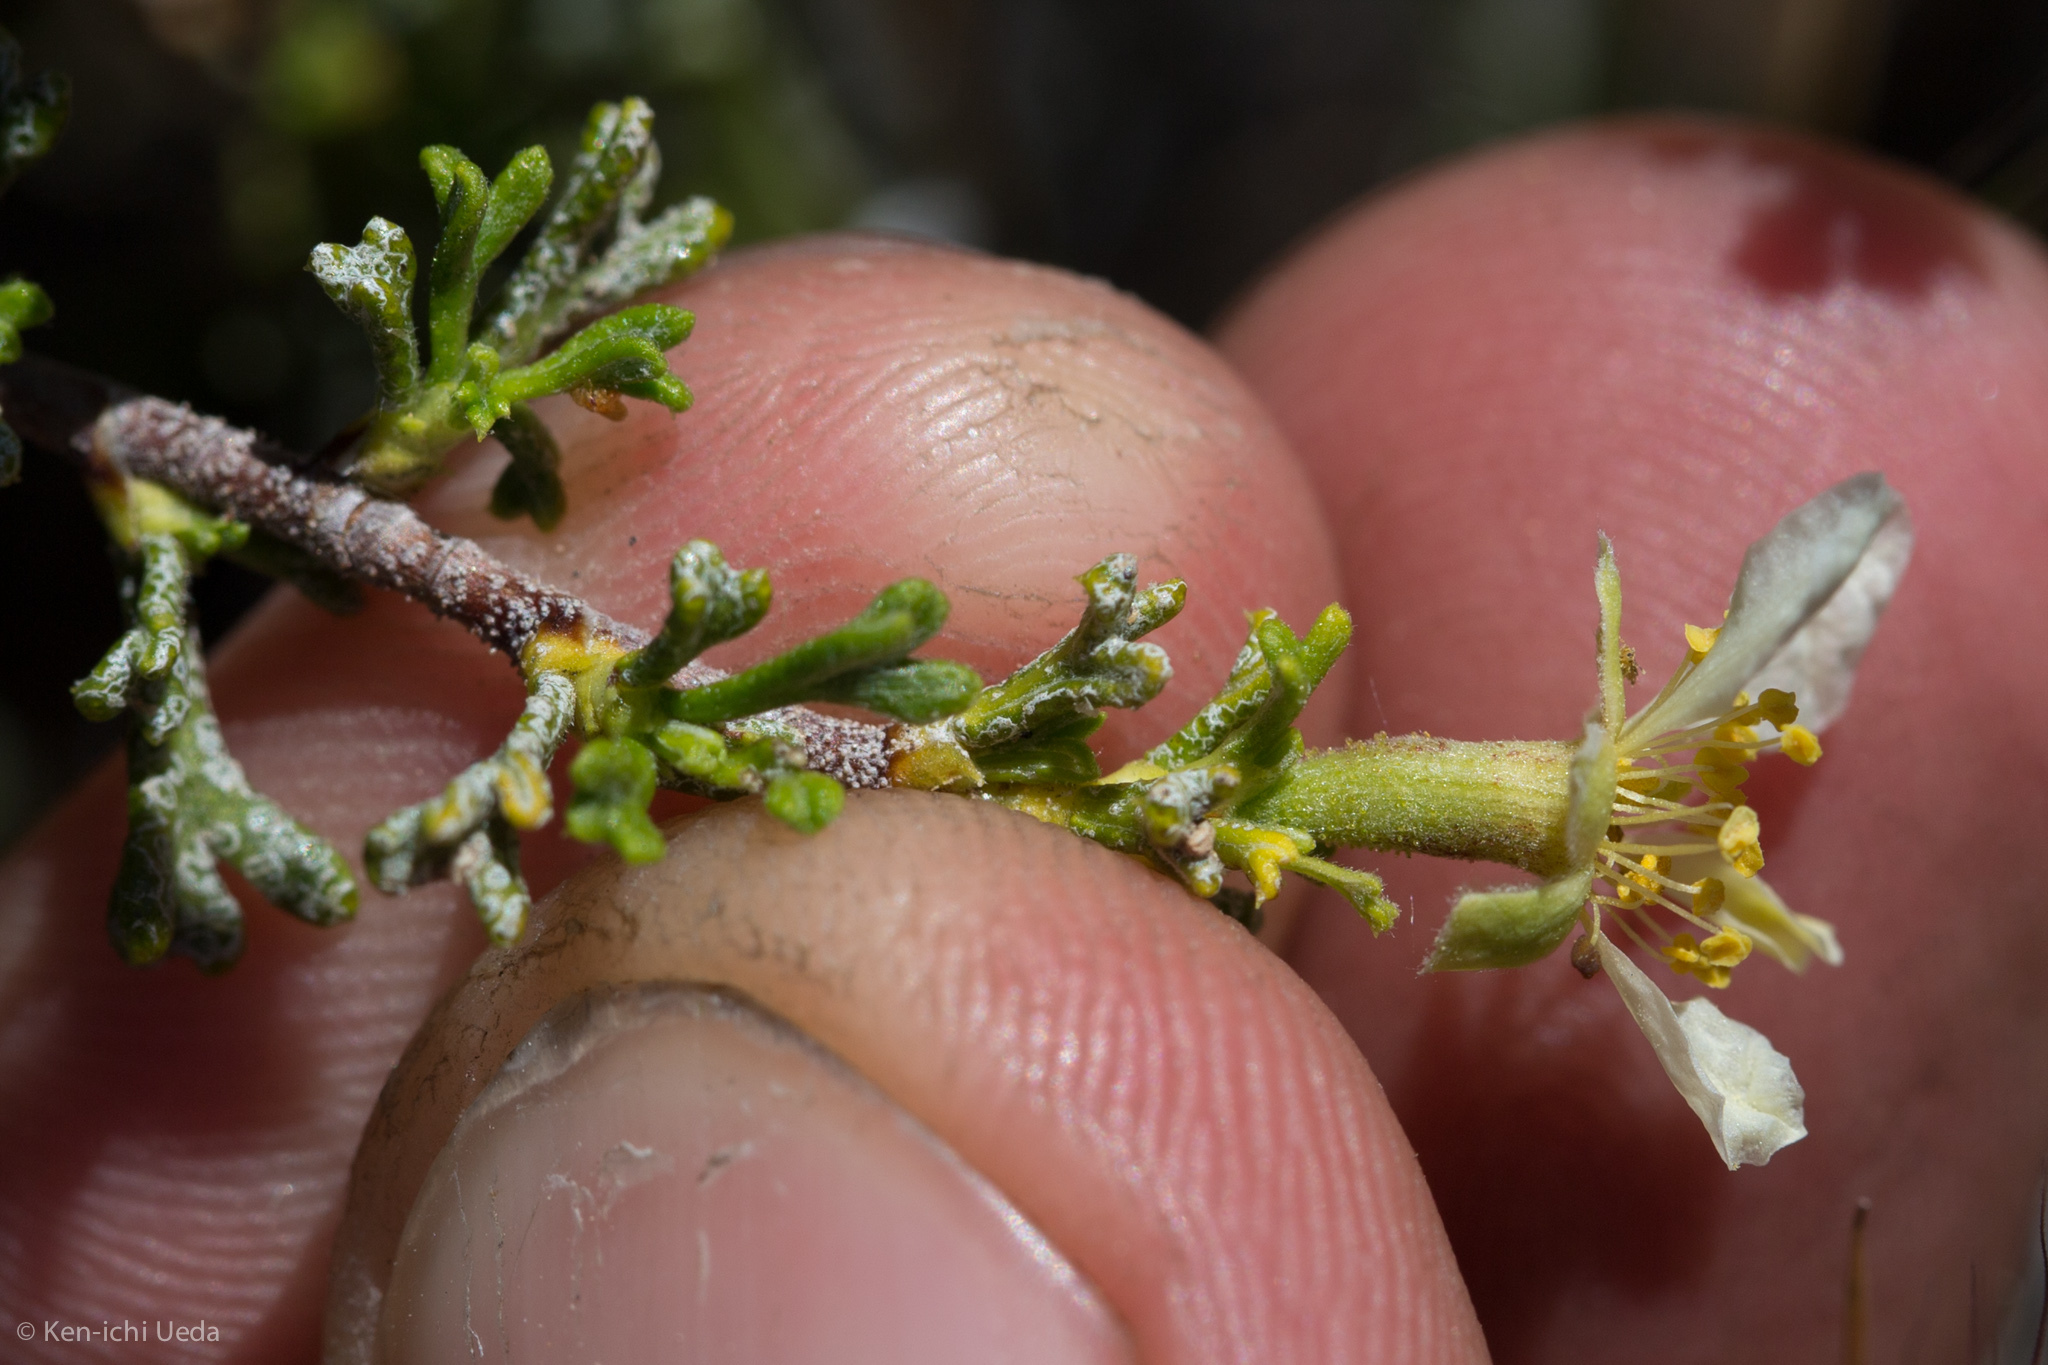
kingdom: Plantae
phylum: Tracheophyta
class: Magnoliopsida
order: Rosales
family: Rosaceae
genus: Purshia
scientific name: Purshia glandulosa
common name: Desert bitterbrush
